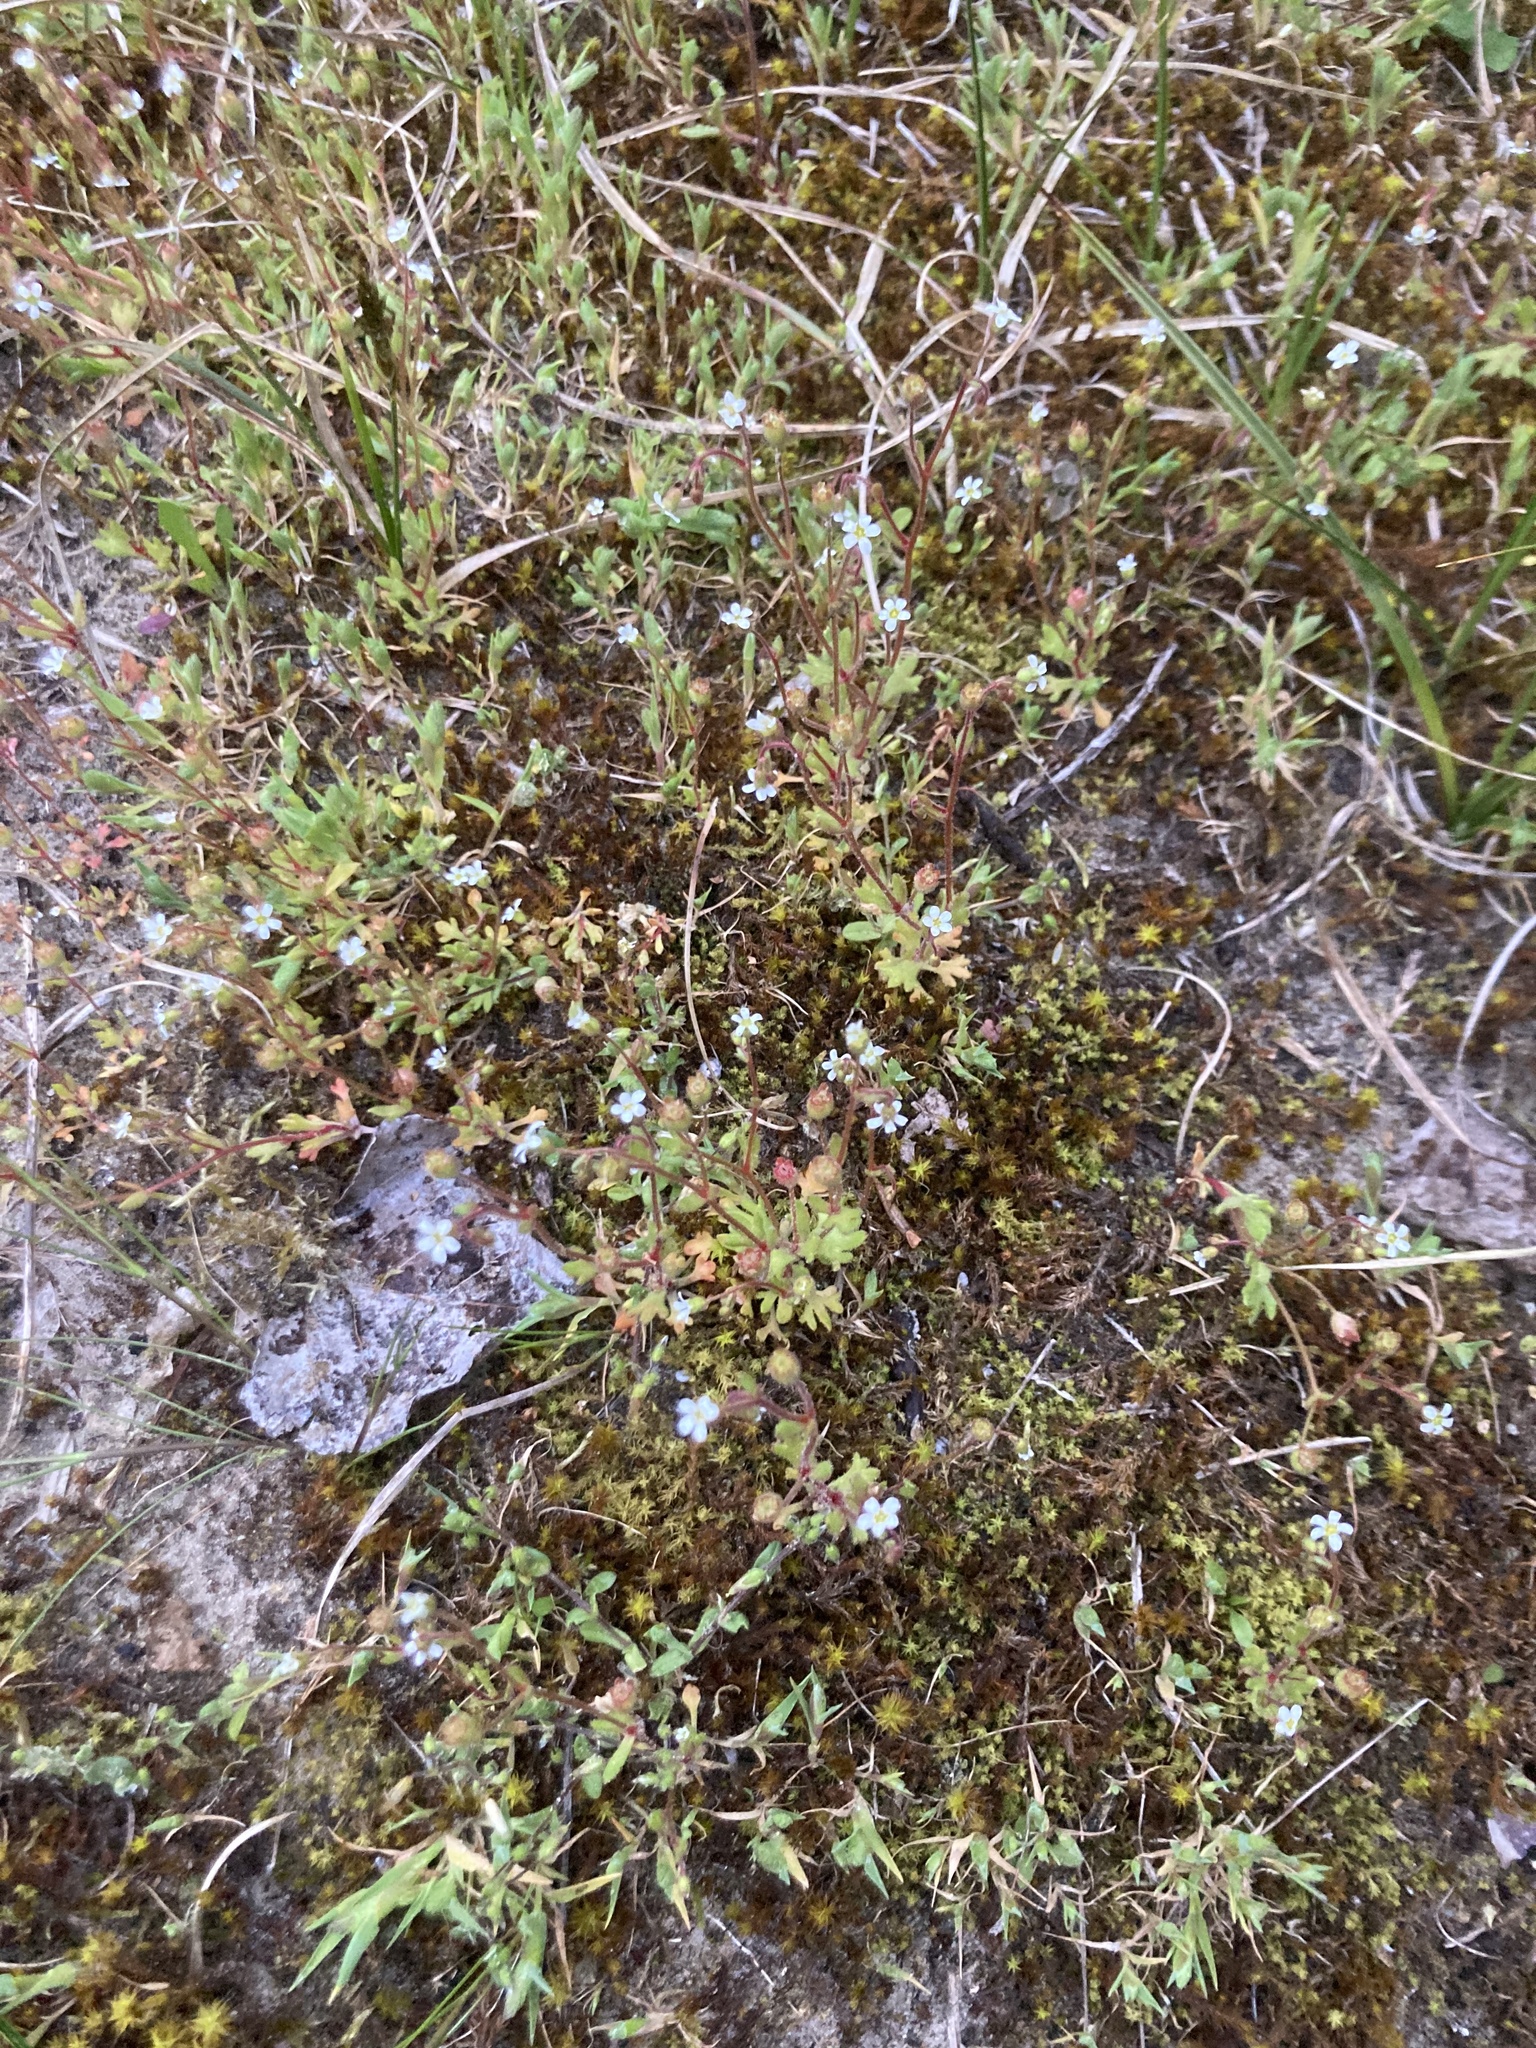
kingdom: Plantae
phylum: Tracheophyta
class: Magnoliopsida
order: Saxifragales
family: Saxifragaceae
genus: Saxifraga
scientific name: Saxifraga tridactylites
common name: Rue-leaved saxifrage
